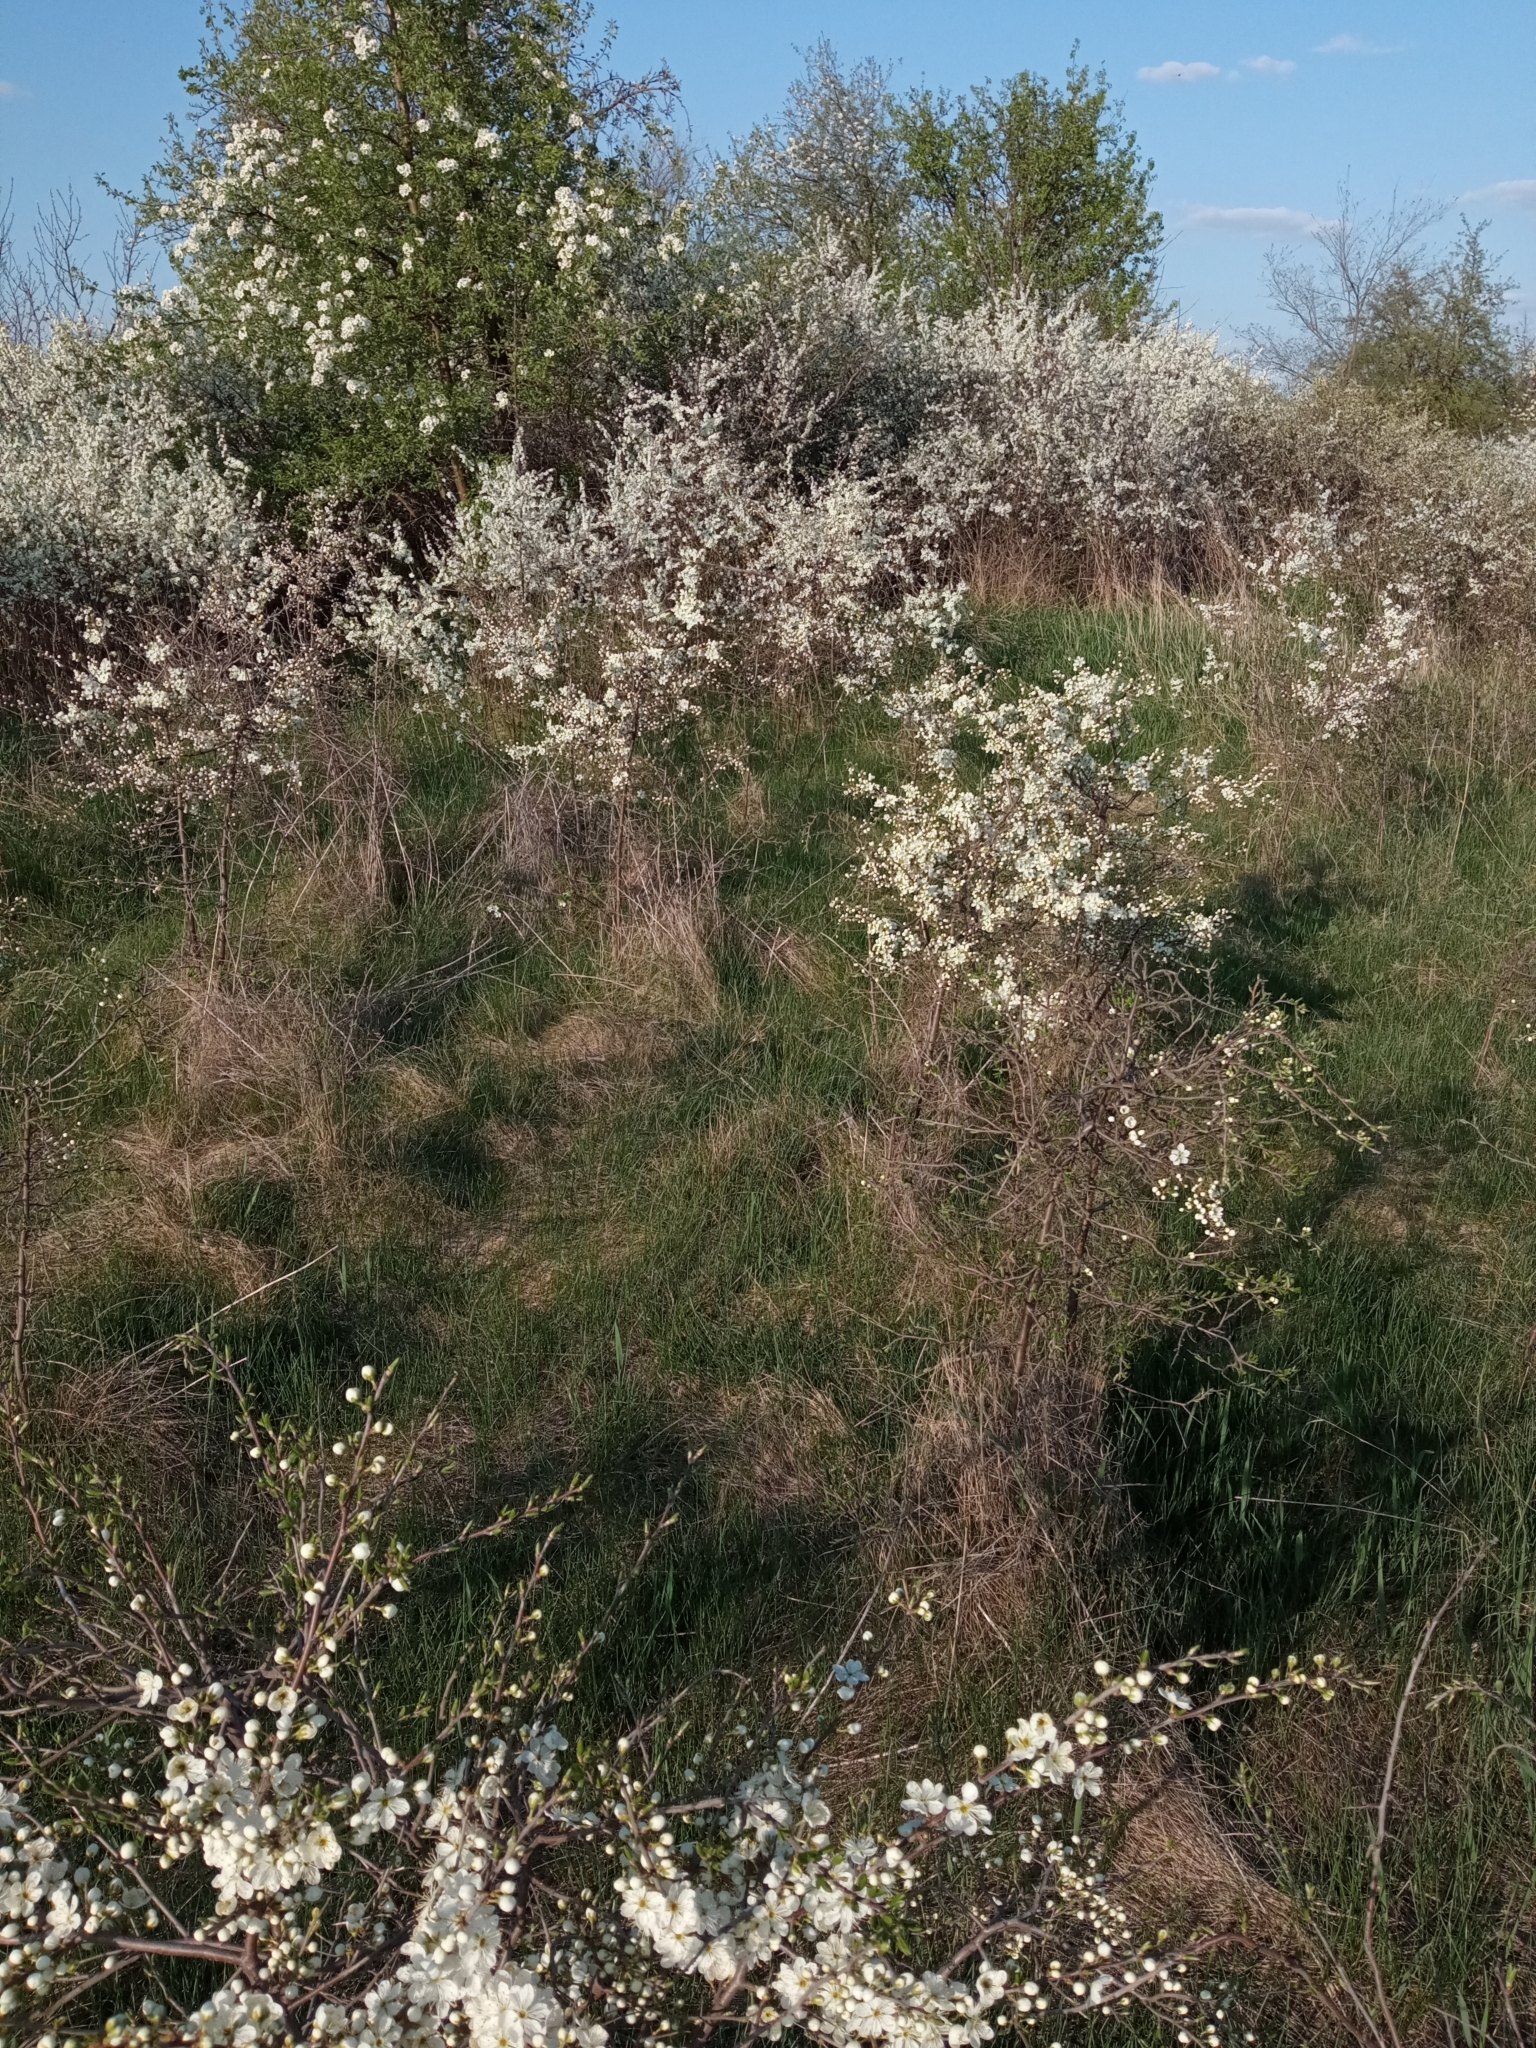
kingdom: Plantae
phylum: Tracheophyta
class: Magnoliopsida
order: Rosales
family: Rosaceae
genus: Prunus
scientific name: Prunus spinosa
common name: Blackthorn
